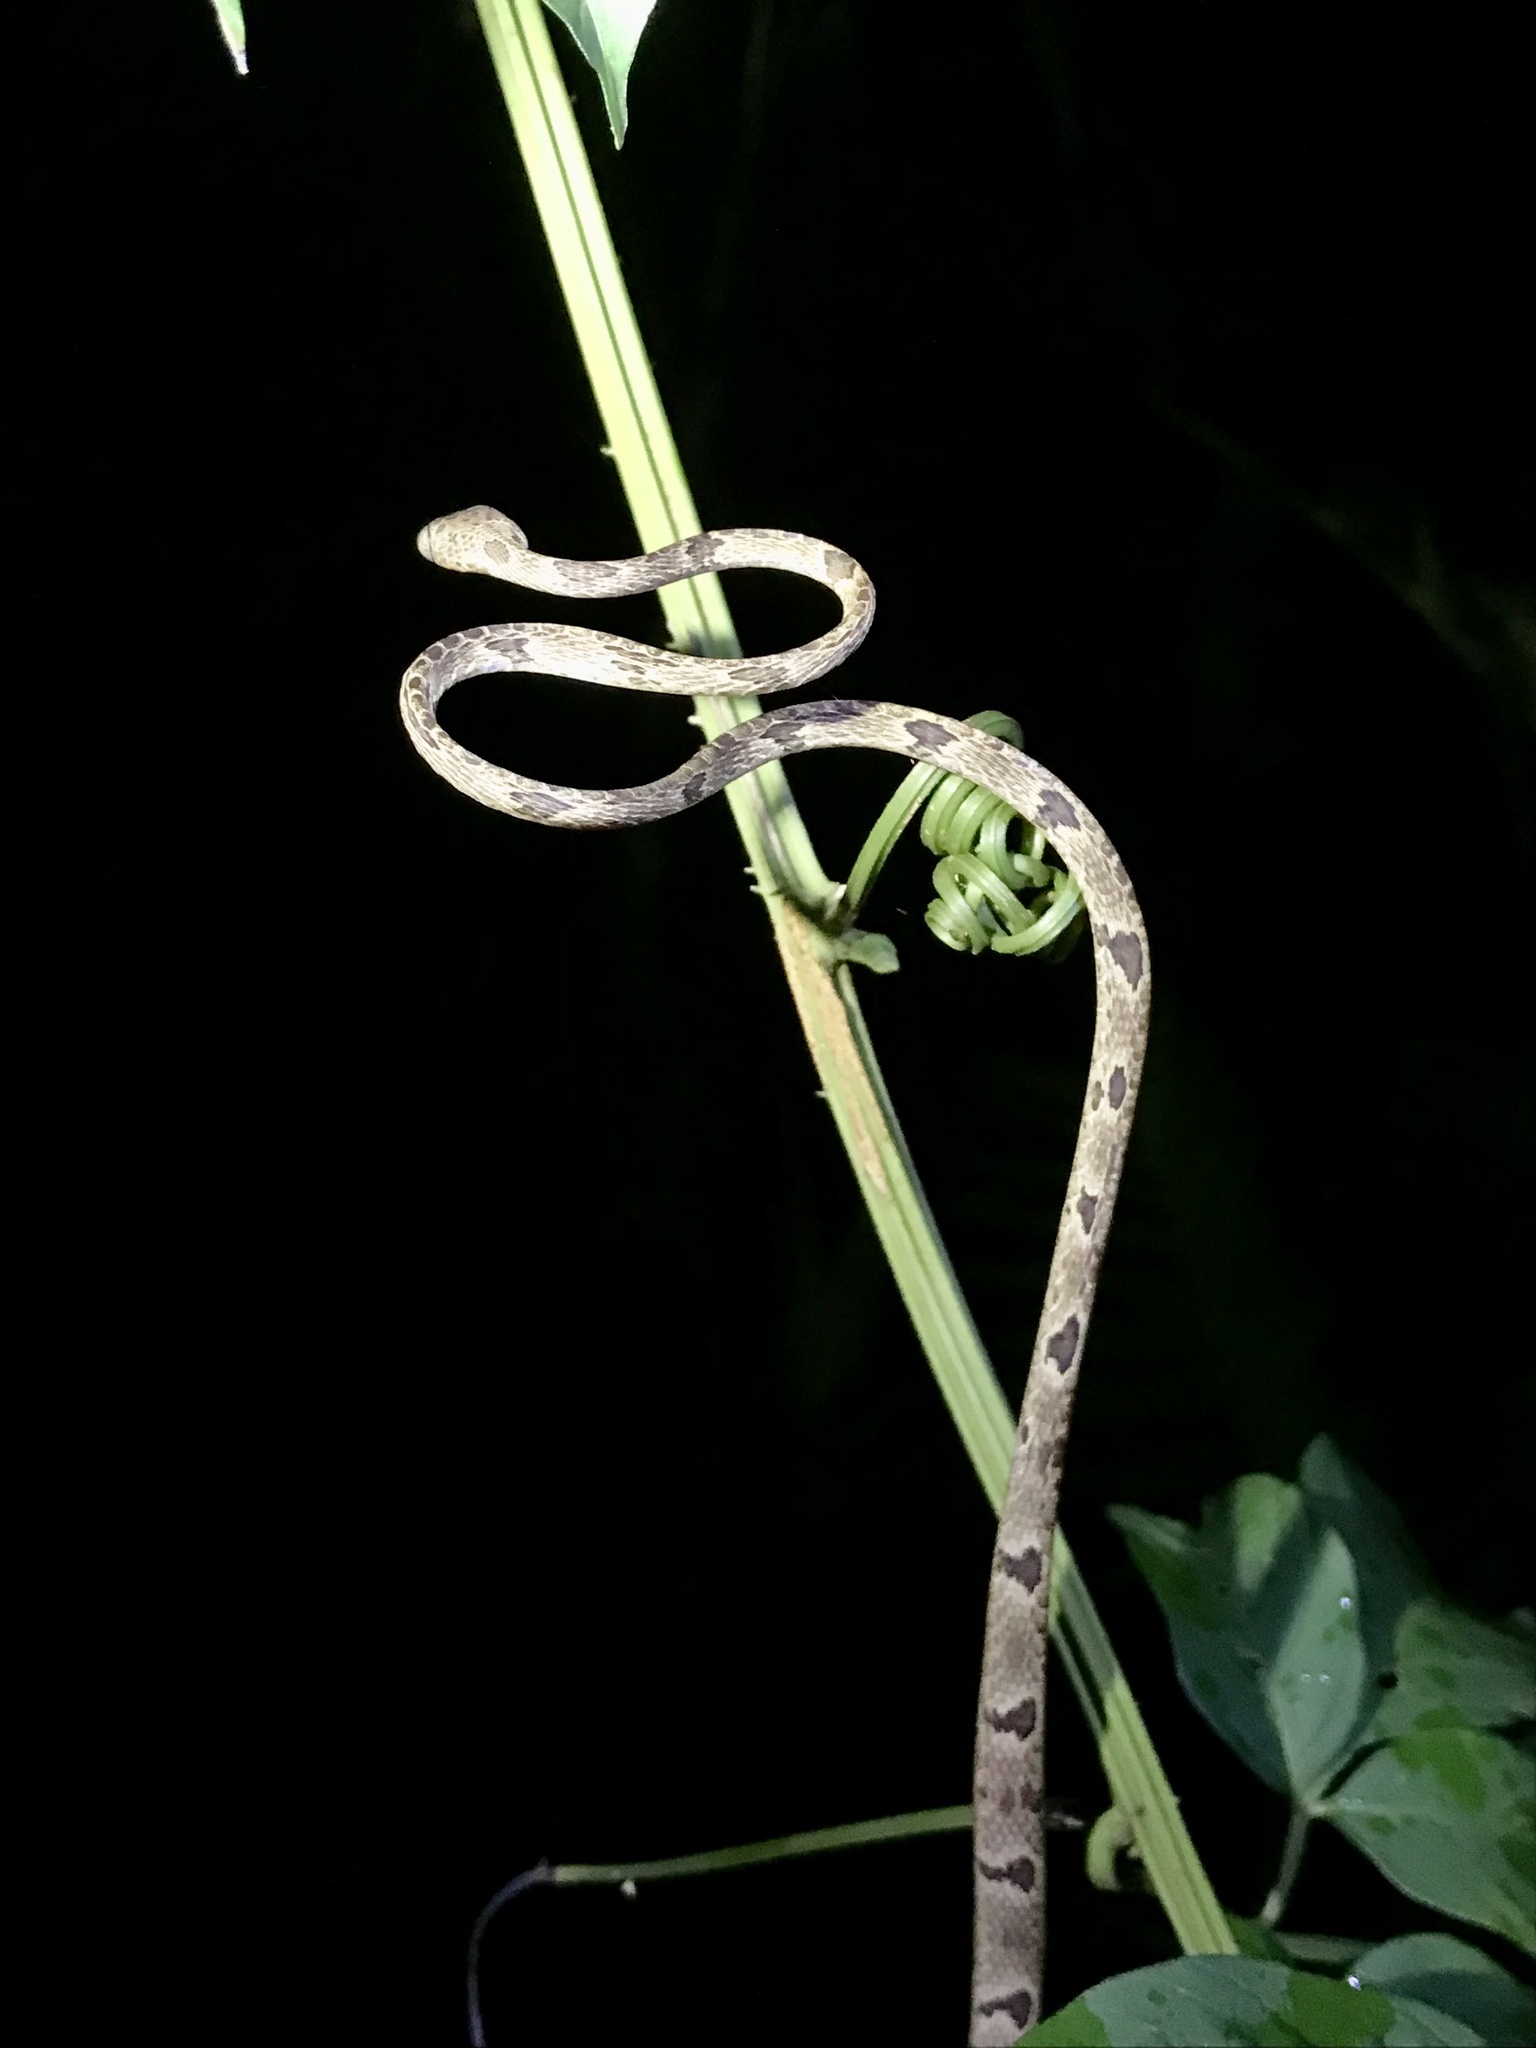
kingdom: Animalia
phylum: Chordata
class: Squamata
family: Colubridae
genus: Imantodes
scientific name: Imantodes cenchoa
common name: Blunthead tree snake
